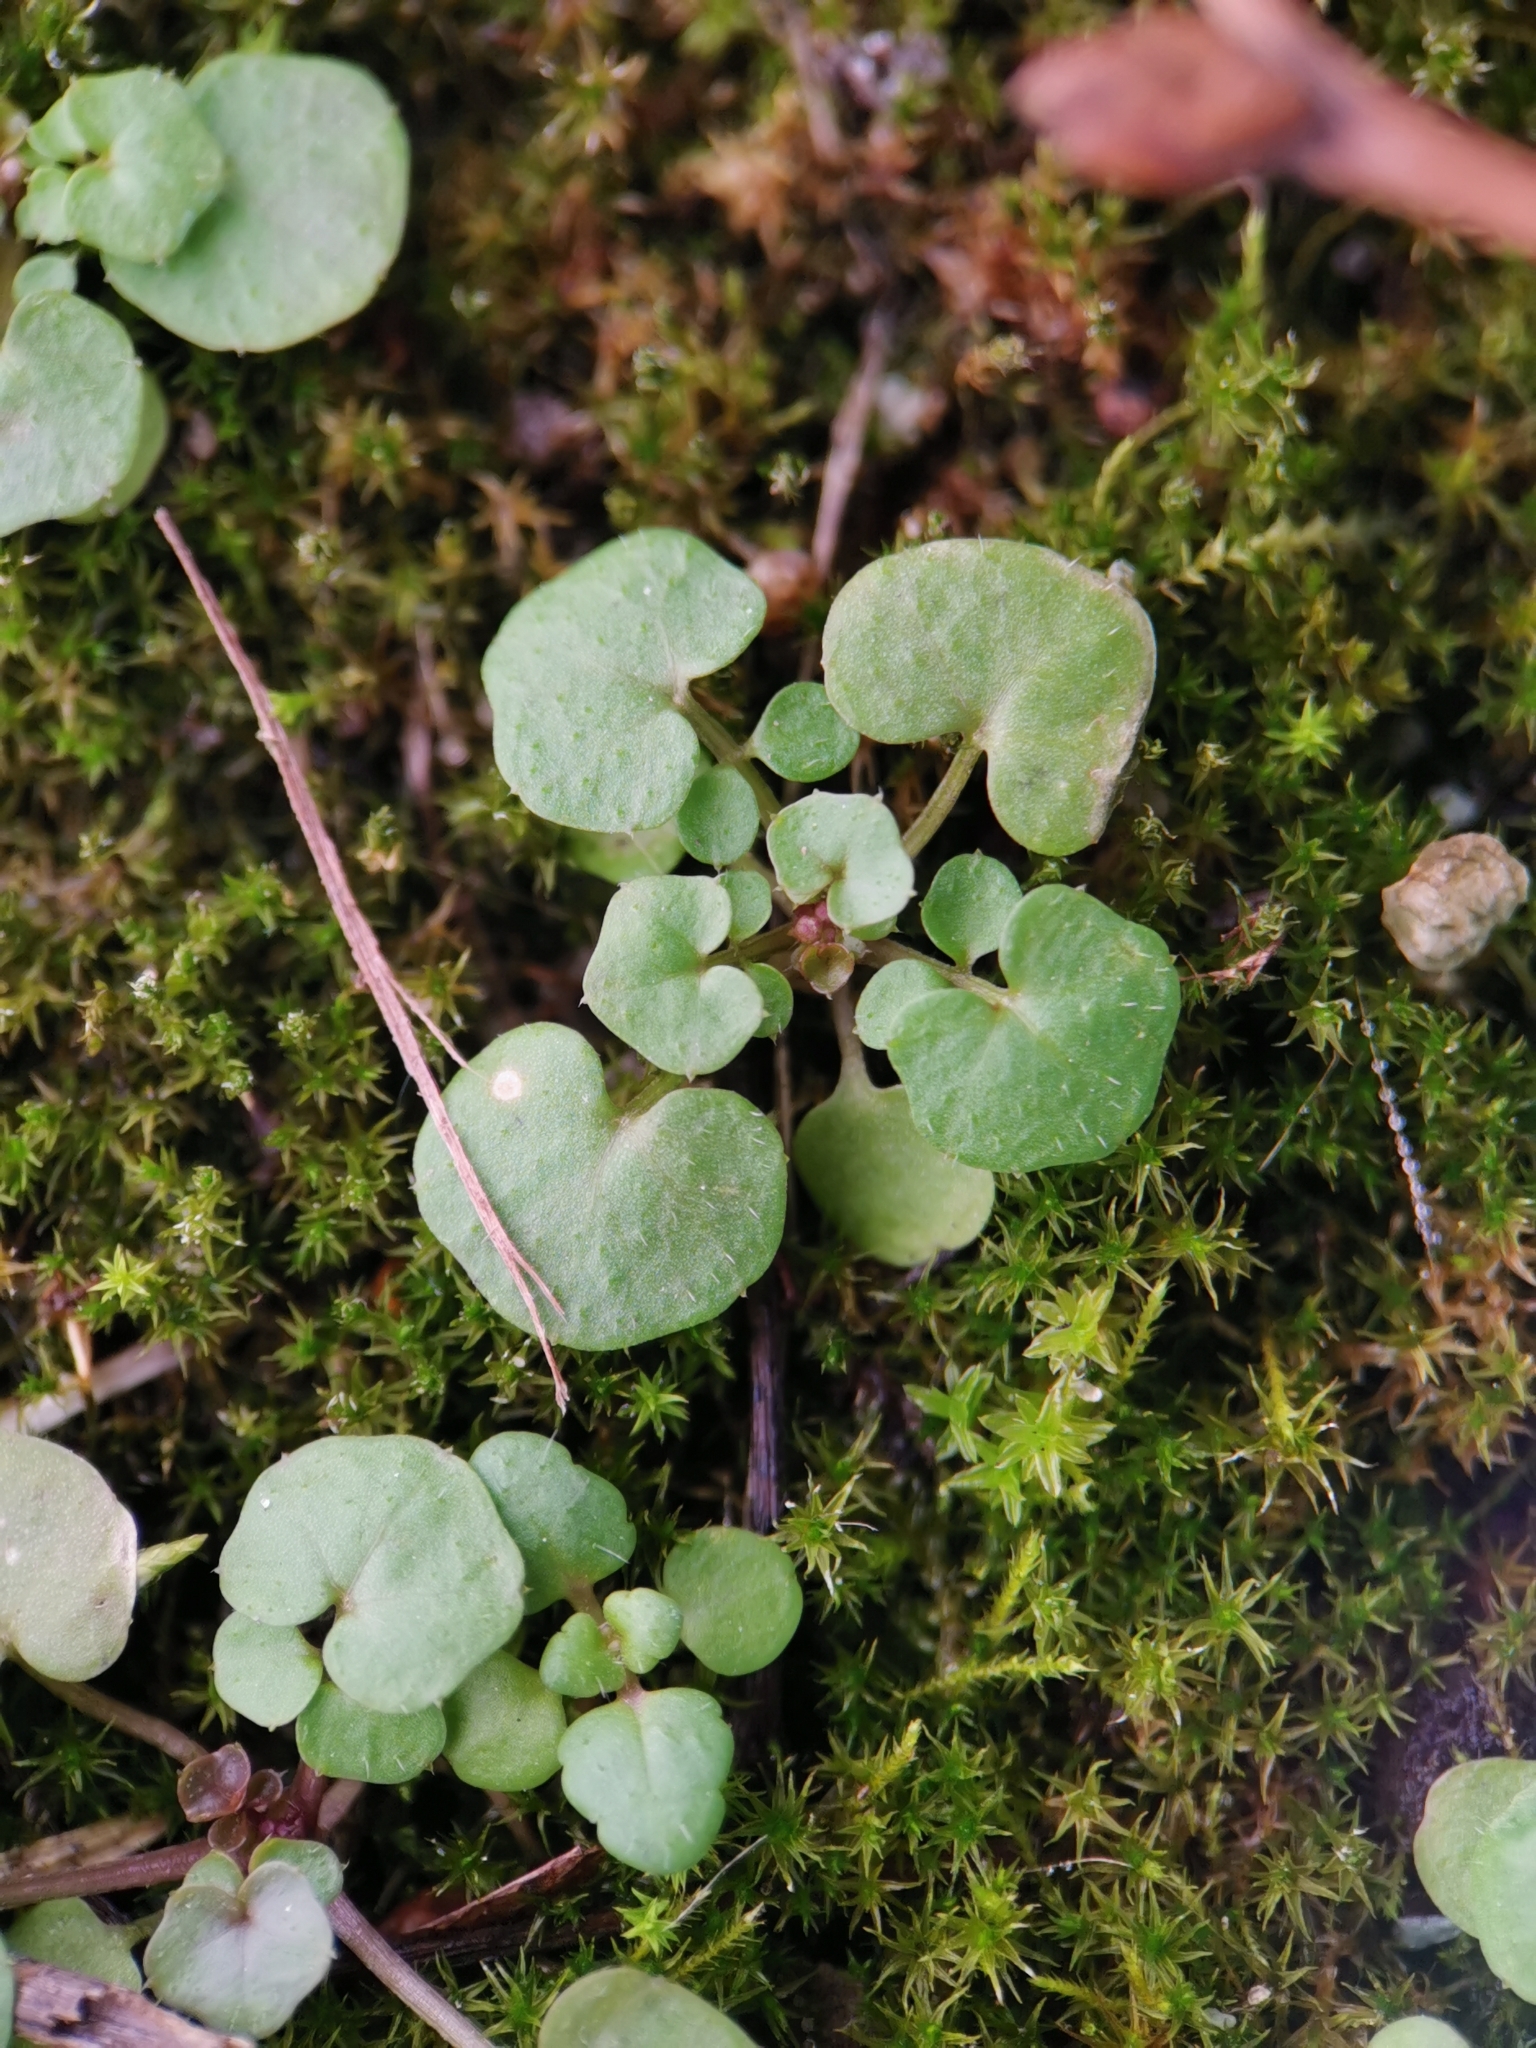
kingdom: Plantae
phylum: Tracheophyta
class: Magnoliopsida
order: Brassicales
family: Brassicaceae
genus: Cardamine
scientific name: Cardamine hirsuta
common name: Hairy bittercress
